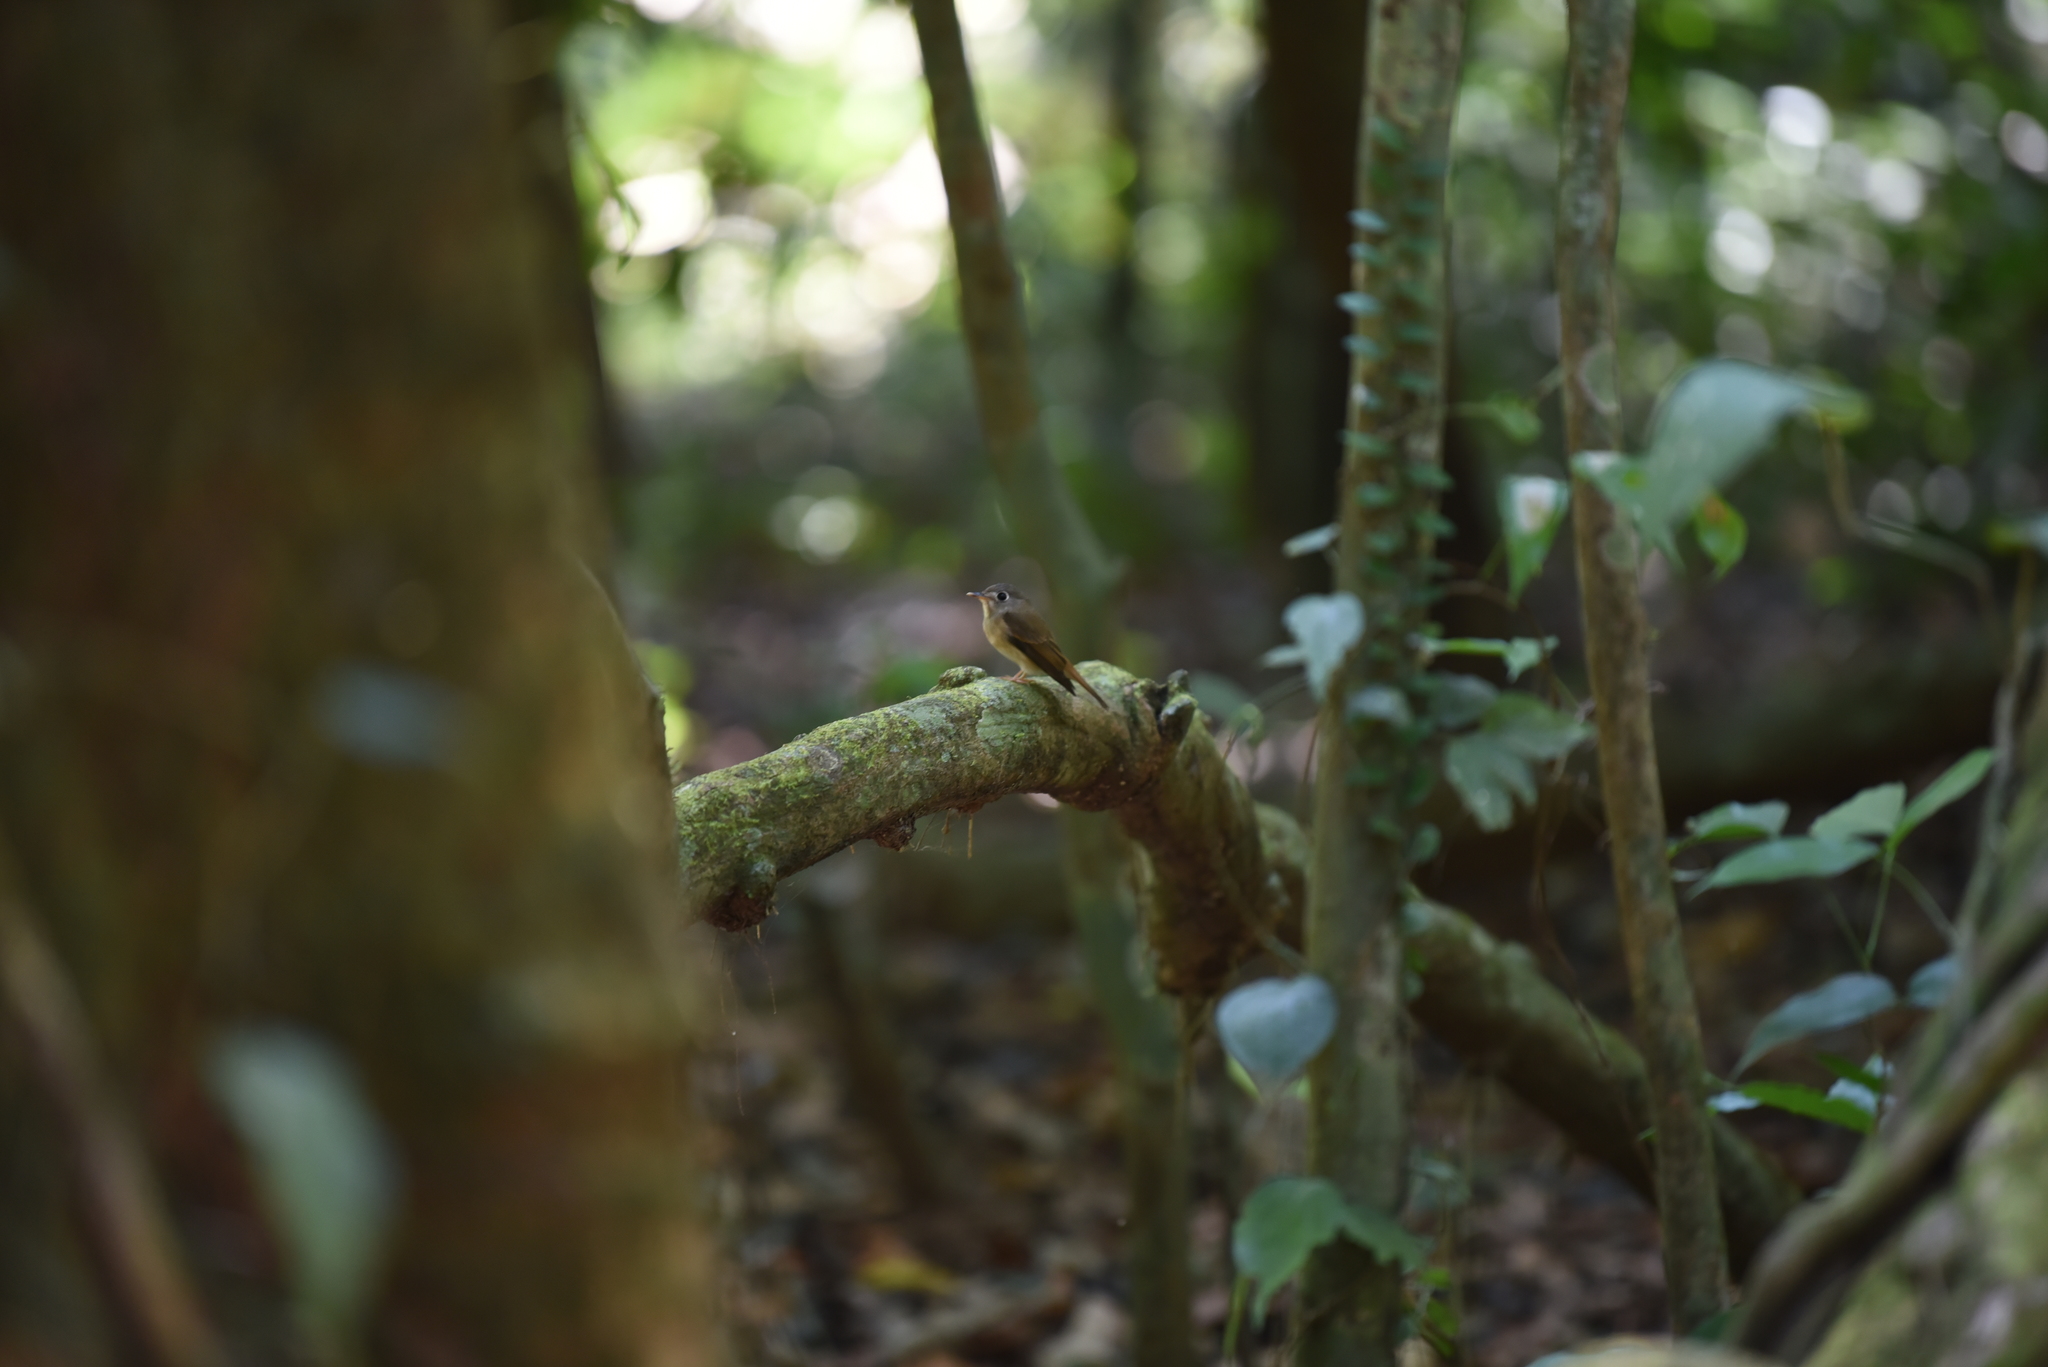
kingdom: Animalia
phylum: Chordata
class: Aves
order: Passeriformes
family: Muscicapidae
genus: Muscicapa
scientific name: Muscicapa ruficauda
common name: Rusty-tailed flycatcher
